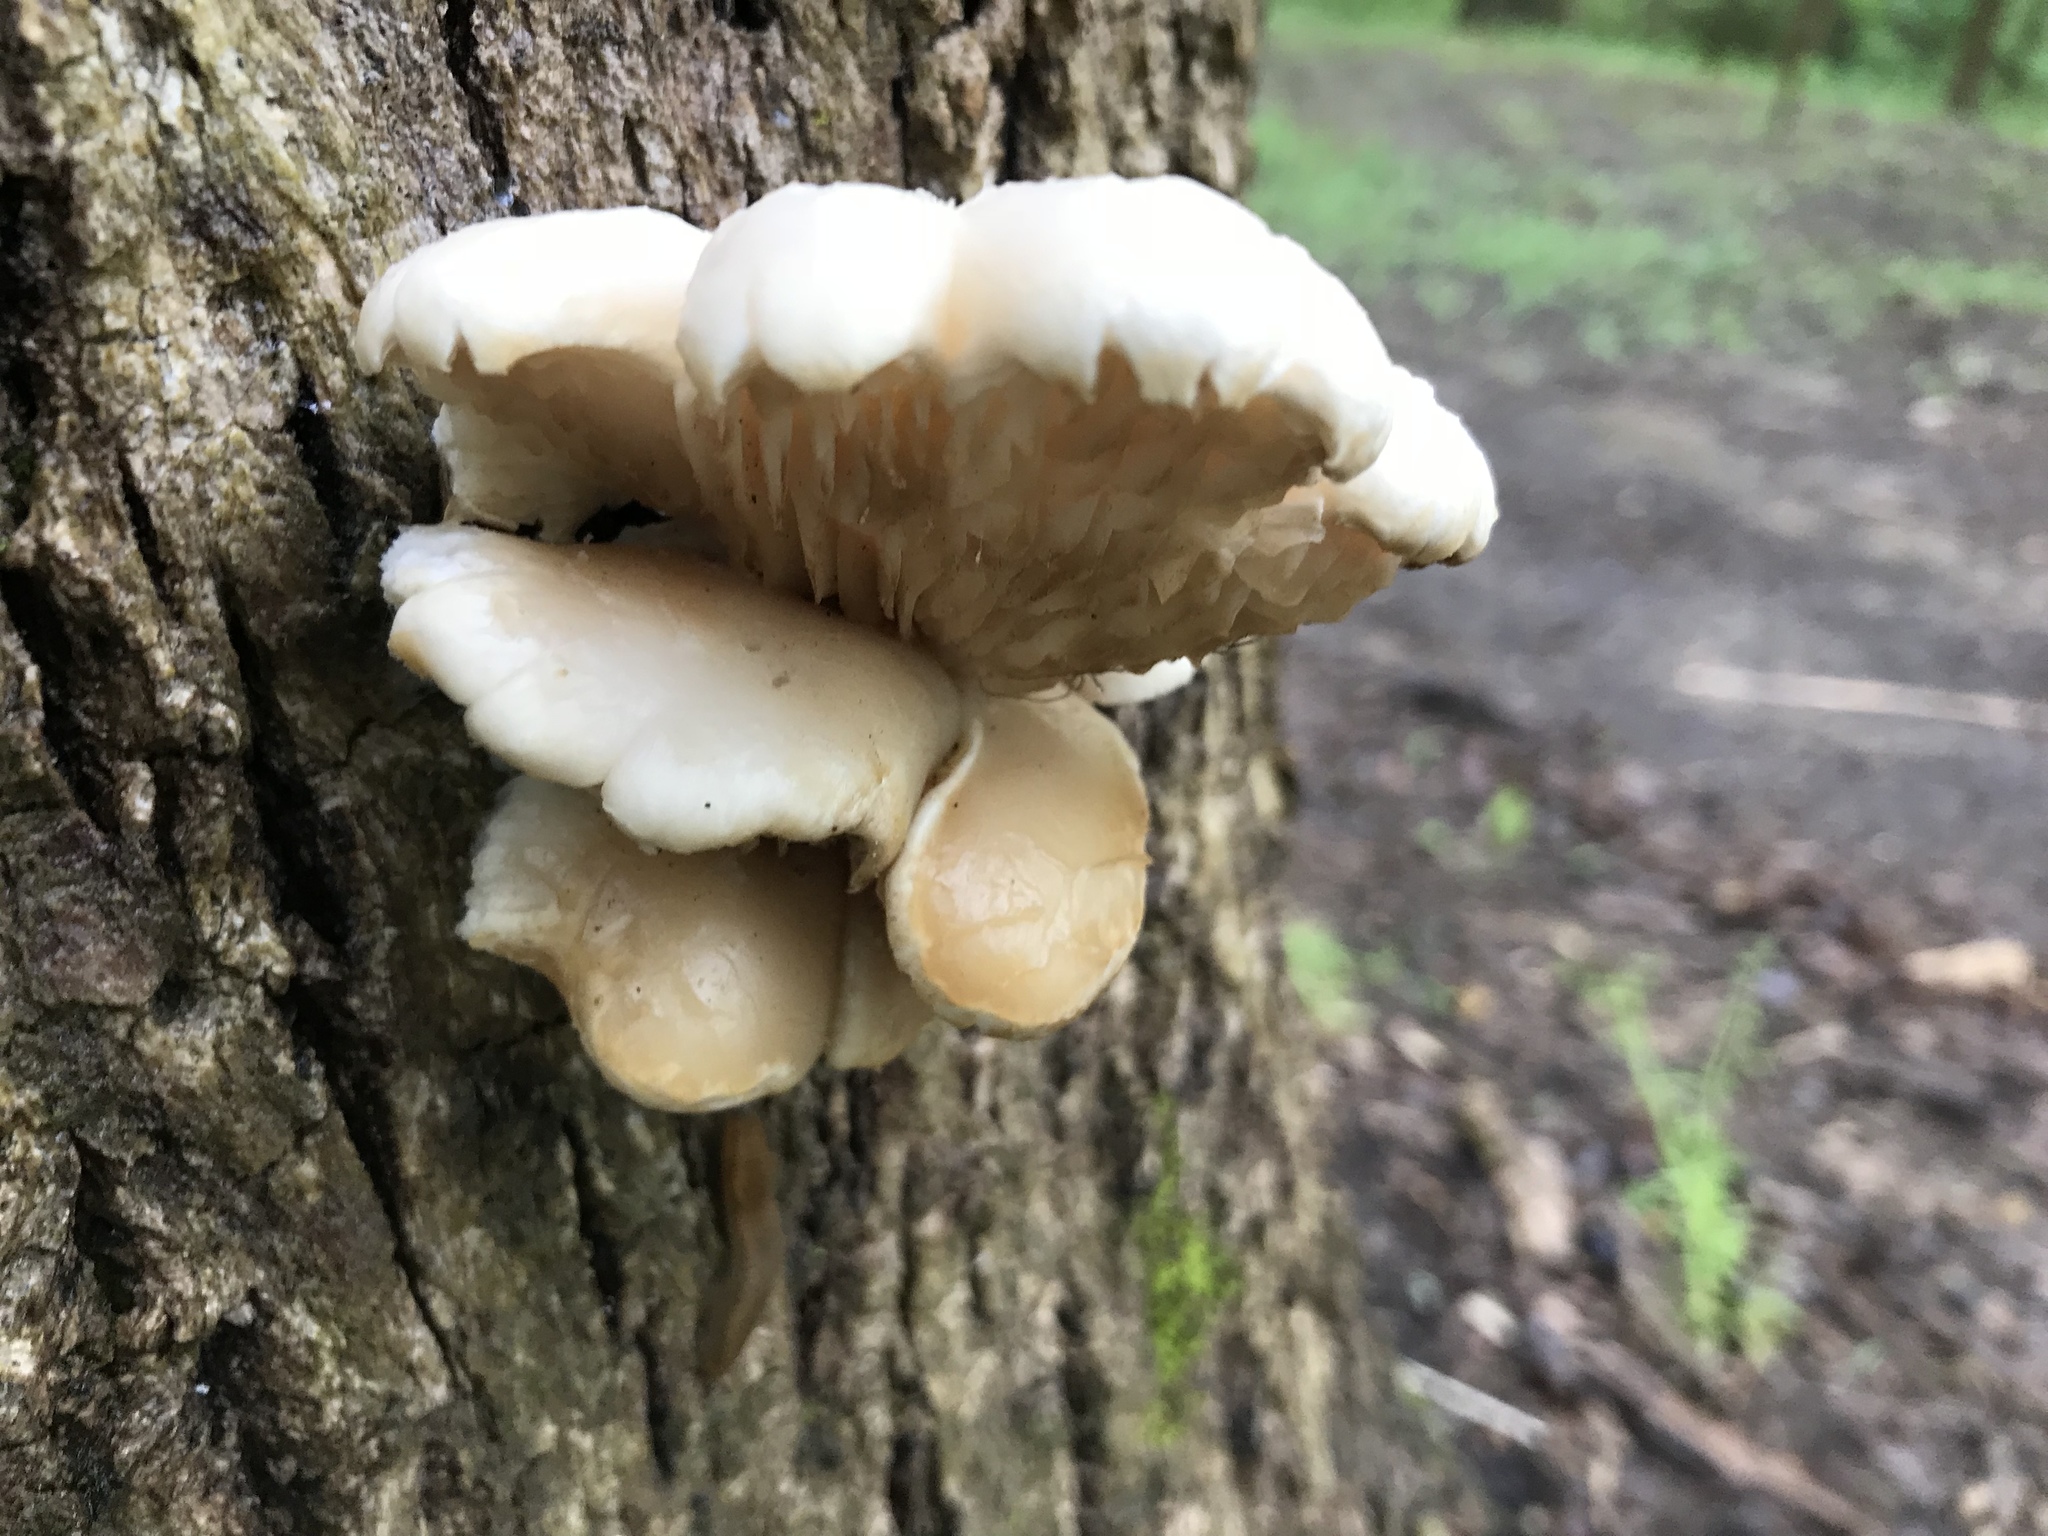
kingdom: Fungi
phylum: Basidiomycota
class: Agaricomycetes
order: Agaricales
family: Pleurotaceae
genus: Pleurotus
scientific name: Pleurotus ostreatus
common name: Oyster mushroom
